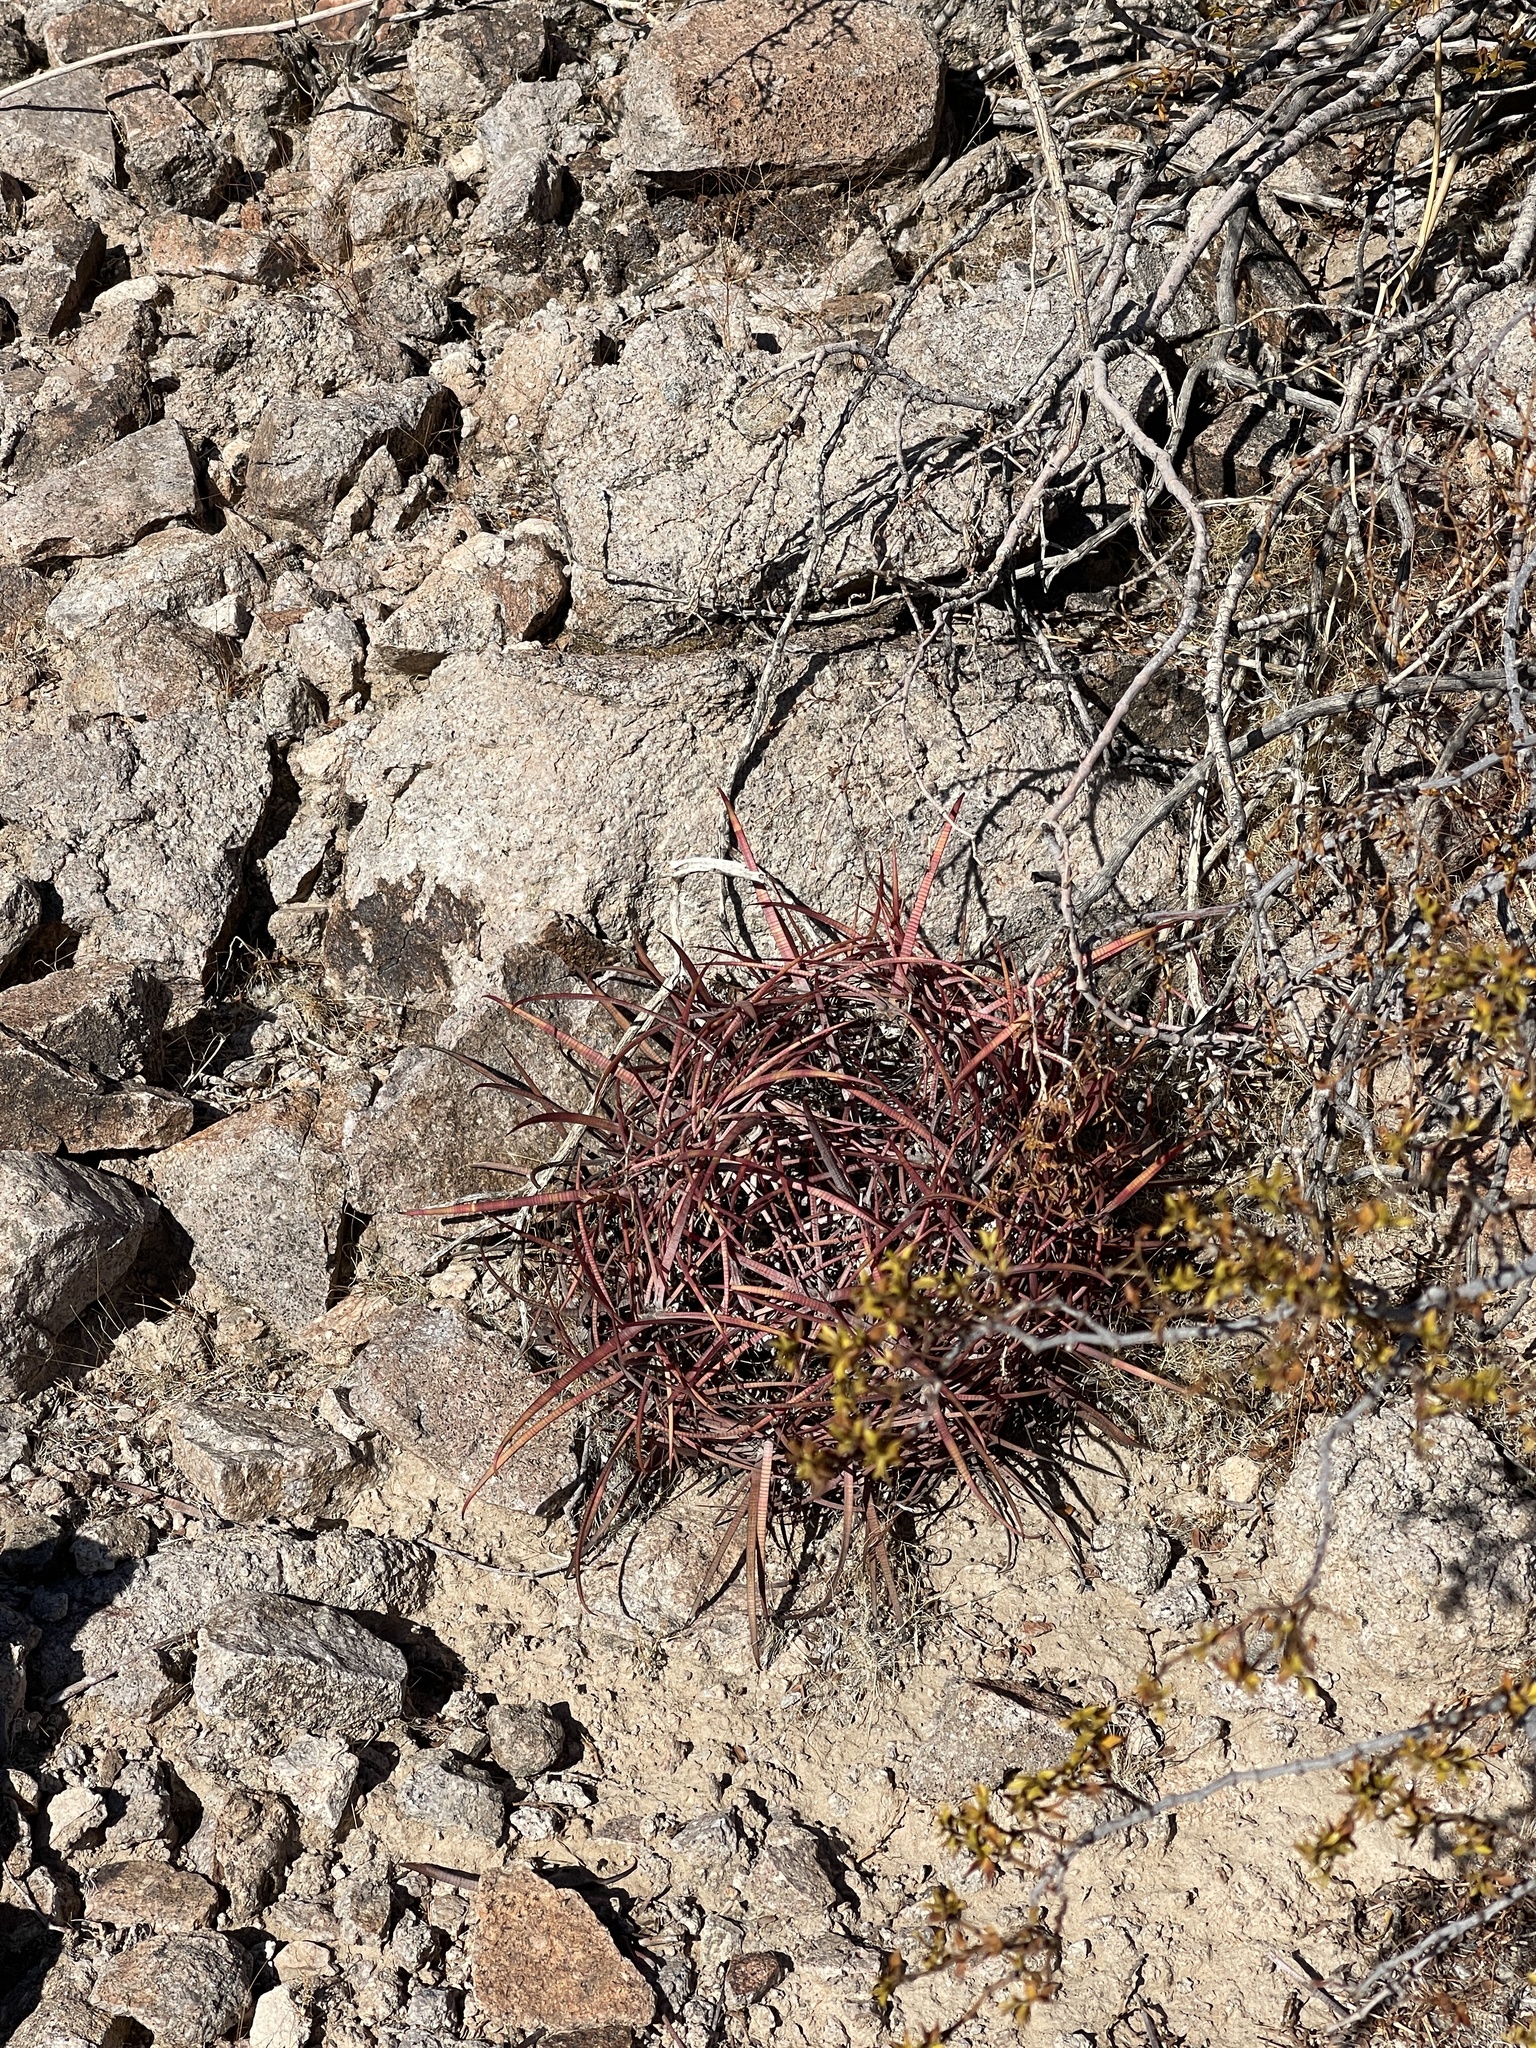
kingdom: Plantae
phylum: Tracheophyta
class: Magnoliopsida
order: Caryophyllales
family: Cactaceae
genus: Ferocactus
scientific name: Ferocactus cylindraceus
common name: California barrel cactus
